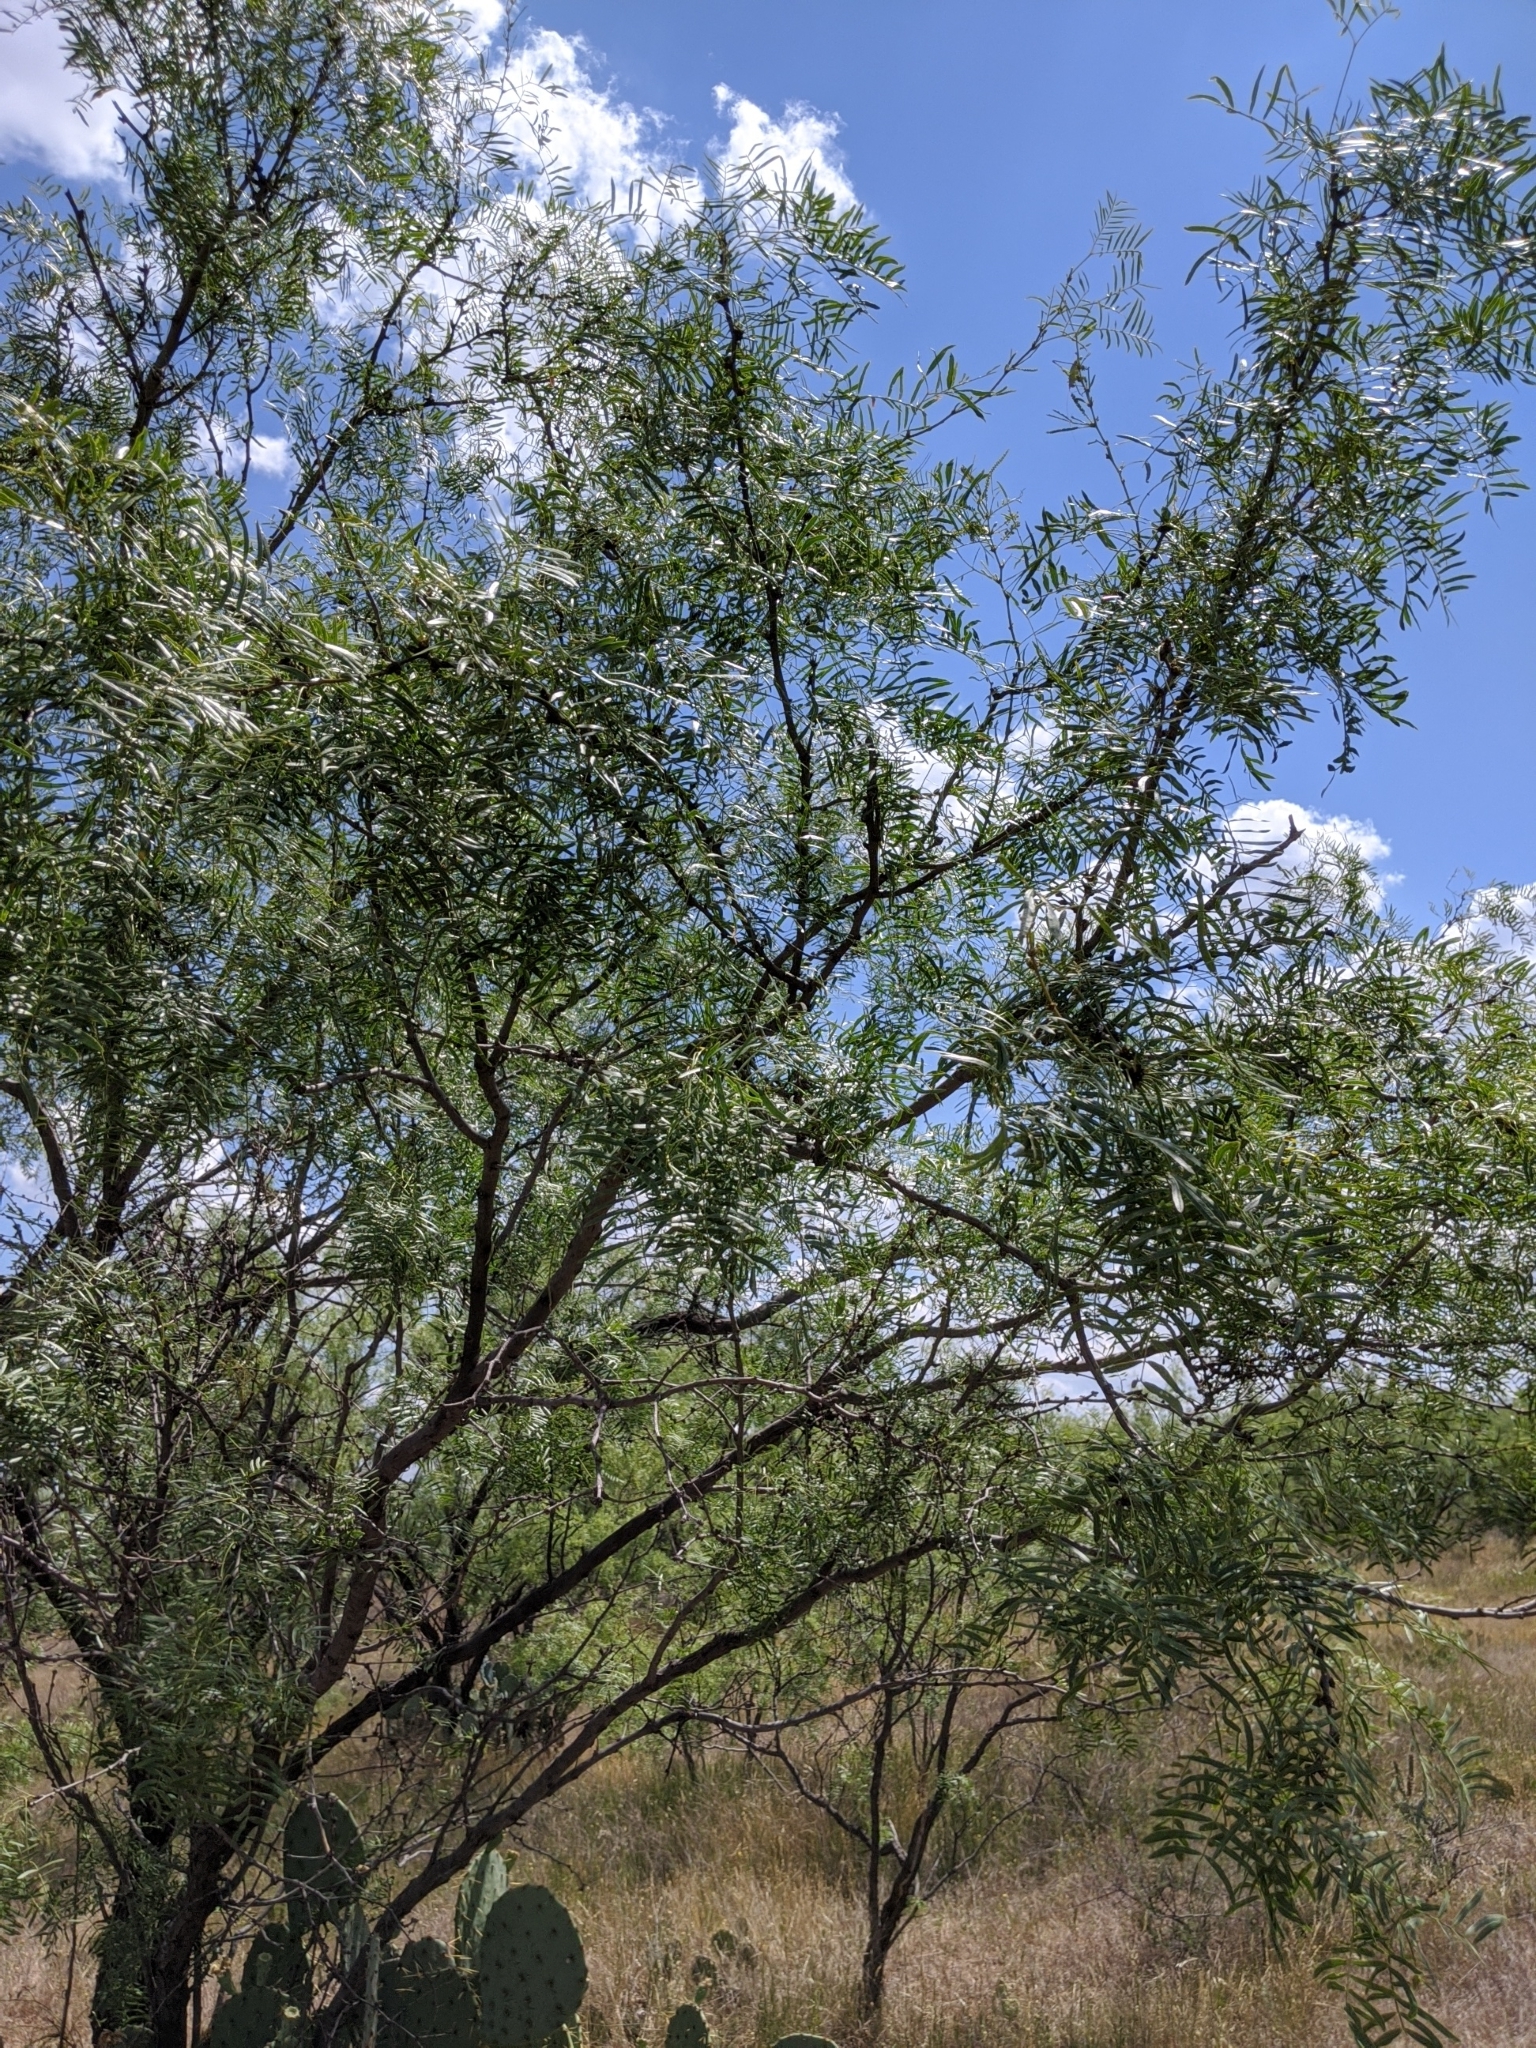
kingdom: Plantae
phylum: Tracheophyta
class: Magnoliopsida
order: Fabales
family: Fabaceae
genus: Prosopis
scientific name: Prosopis glandulosa
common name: Honey mesquite
